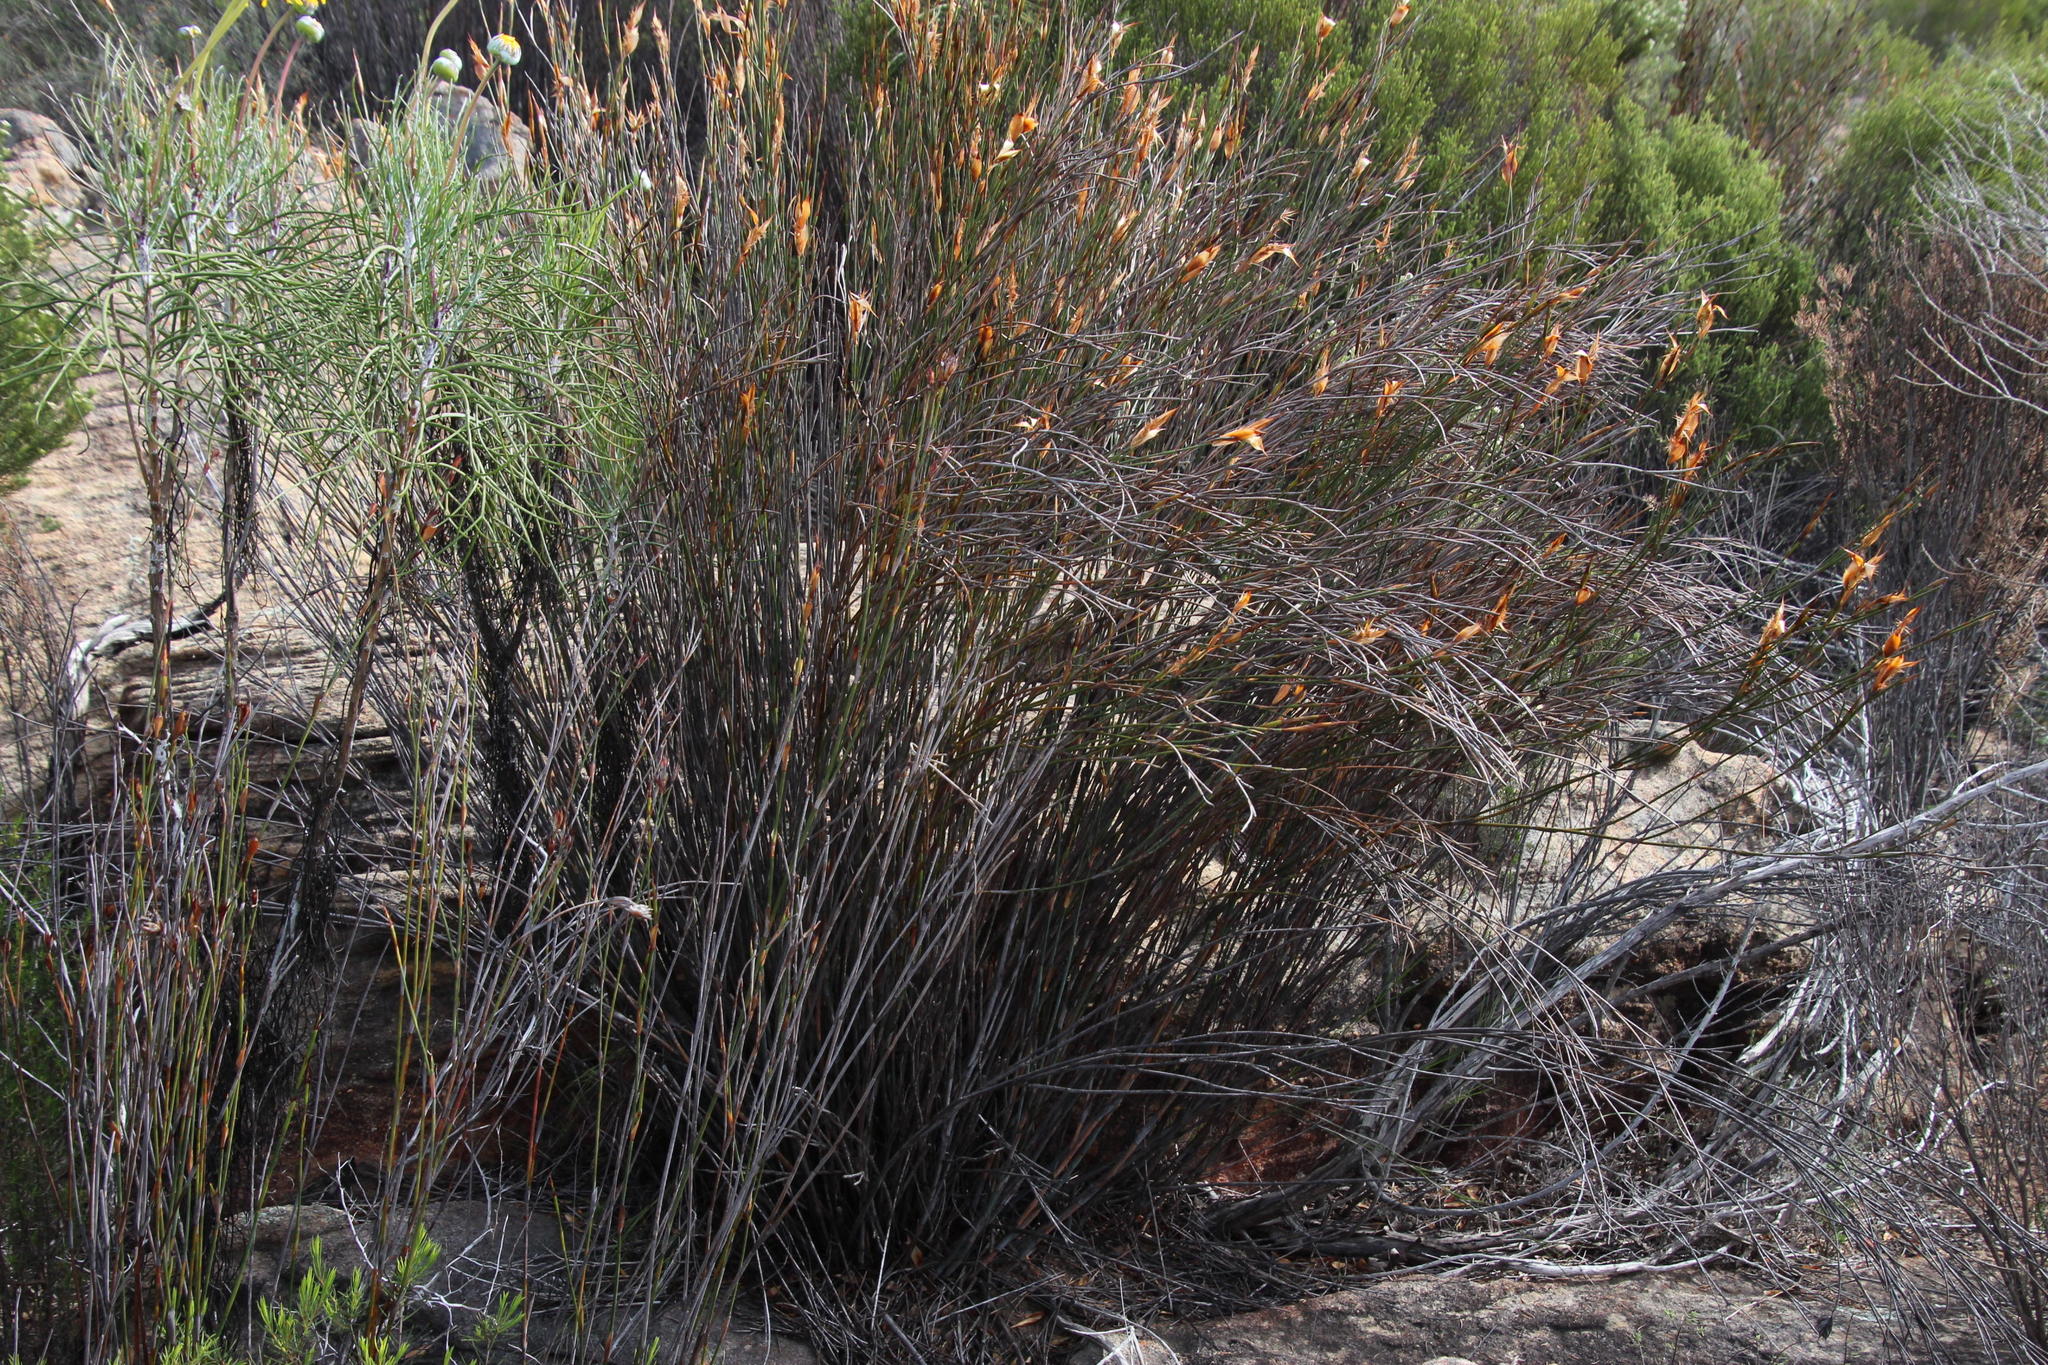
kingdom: Plantae
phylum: Tracheophyta
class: Liliopsida
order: Poales
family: Restionaceae
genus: Willdenowia
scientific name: Willdenowia incurvata
